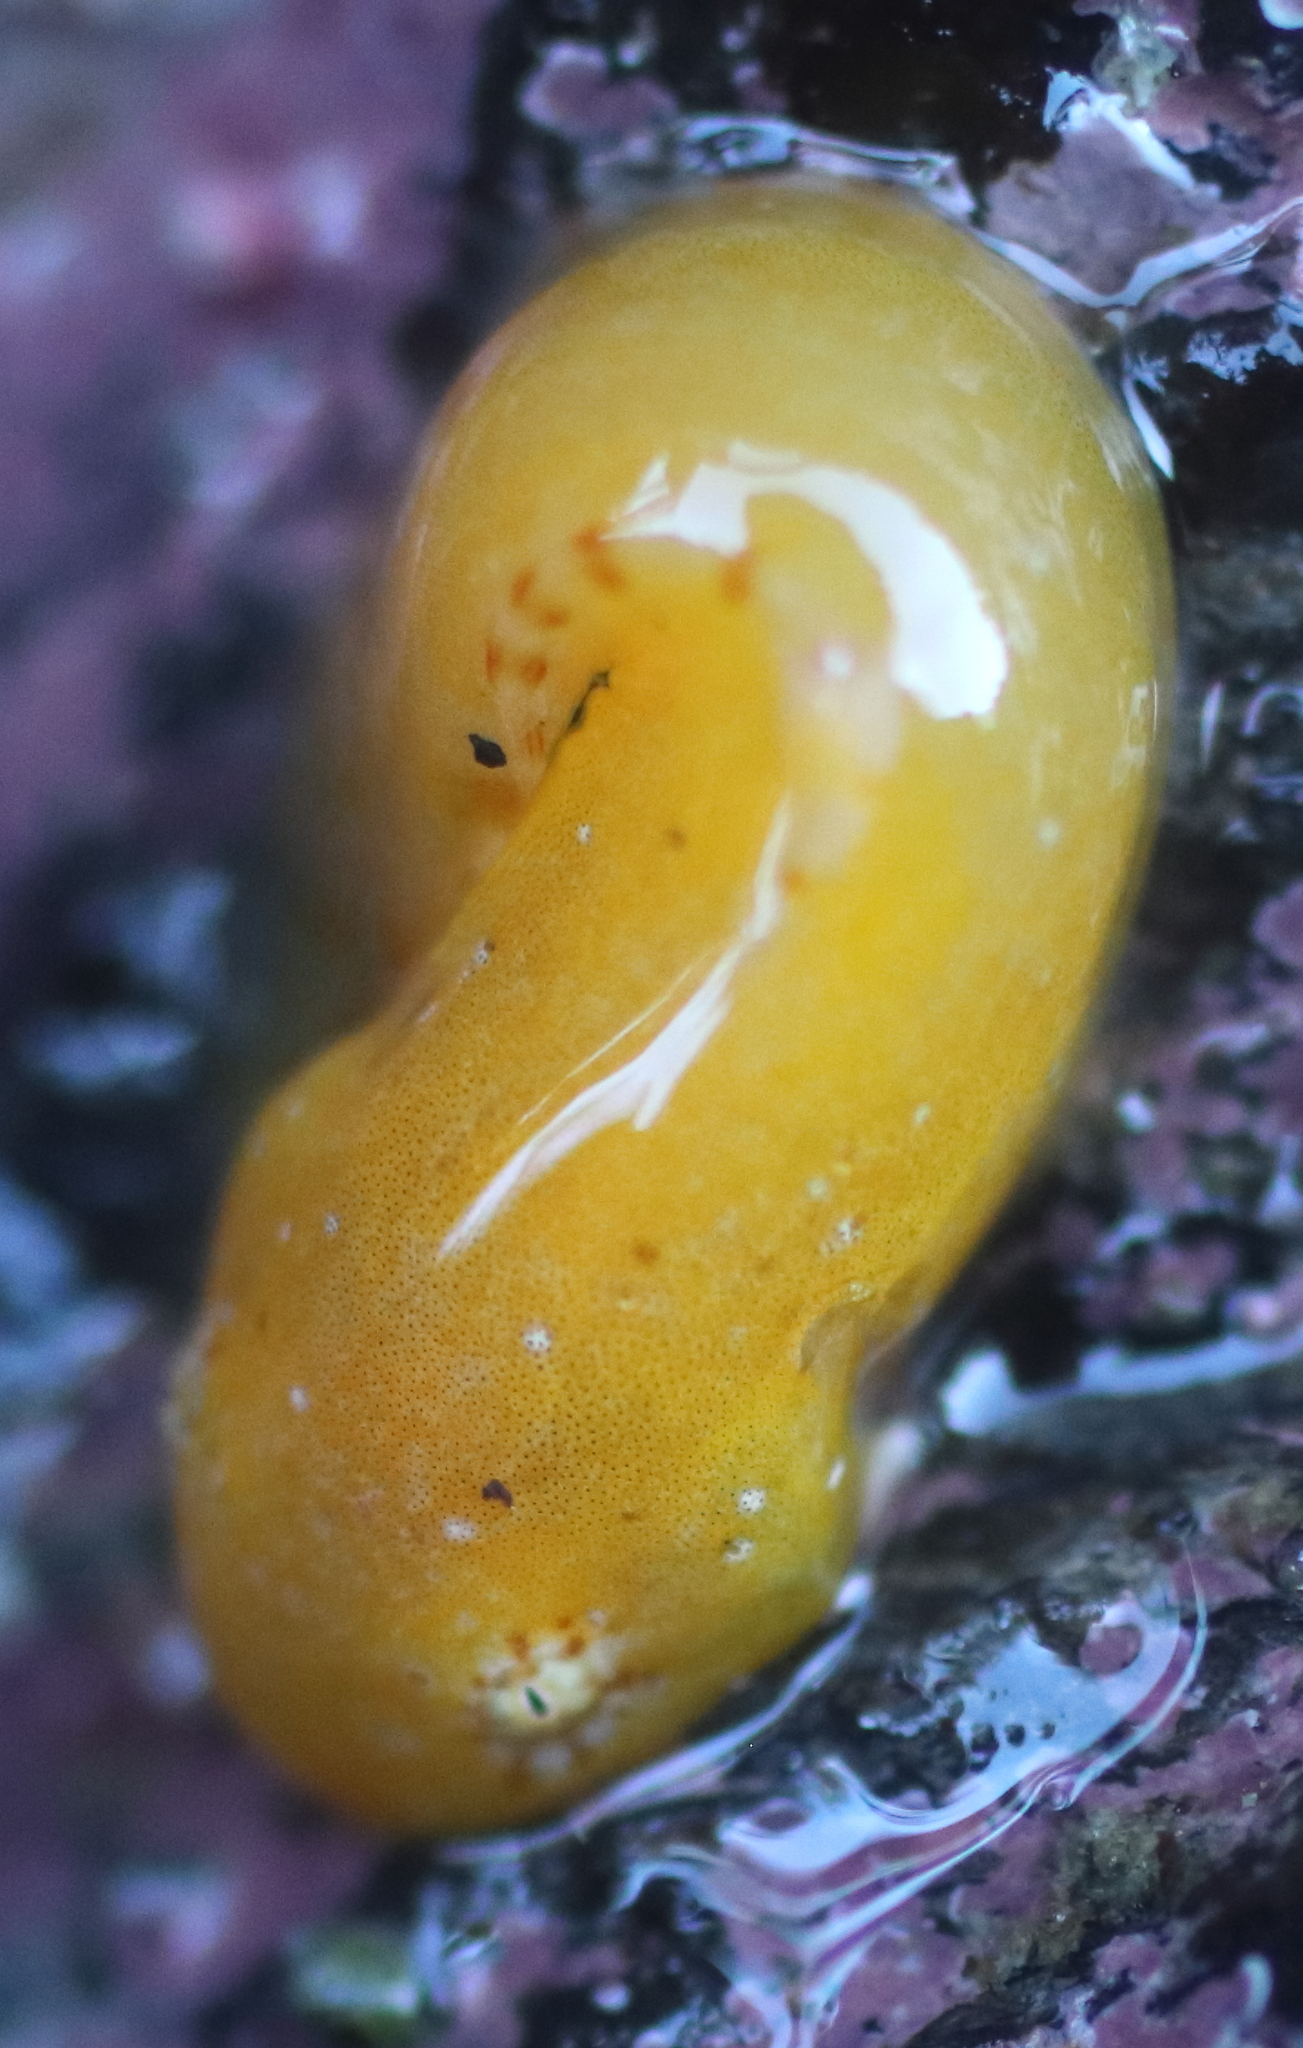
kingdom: Animalia
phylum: Chordata
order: Scorpaeniformes
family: Liparidae
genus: Liparis
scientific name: Liparis mucosus
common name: Slimy snailfish
